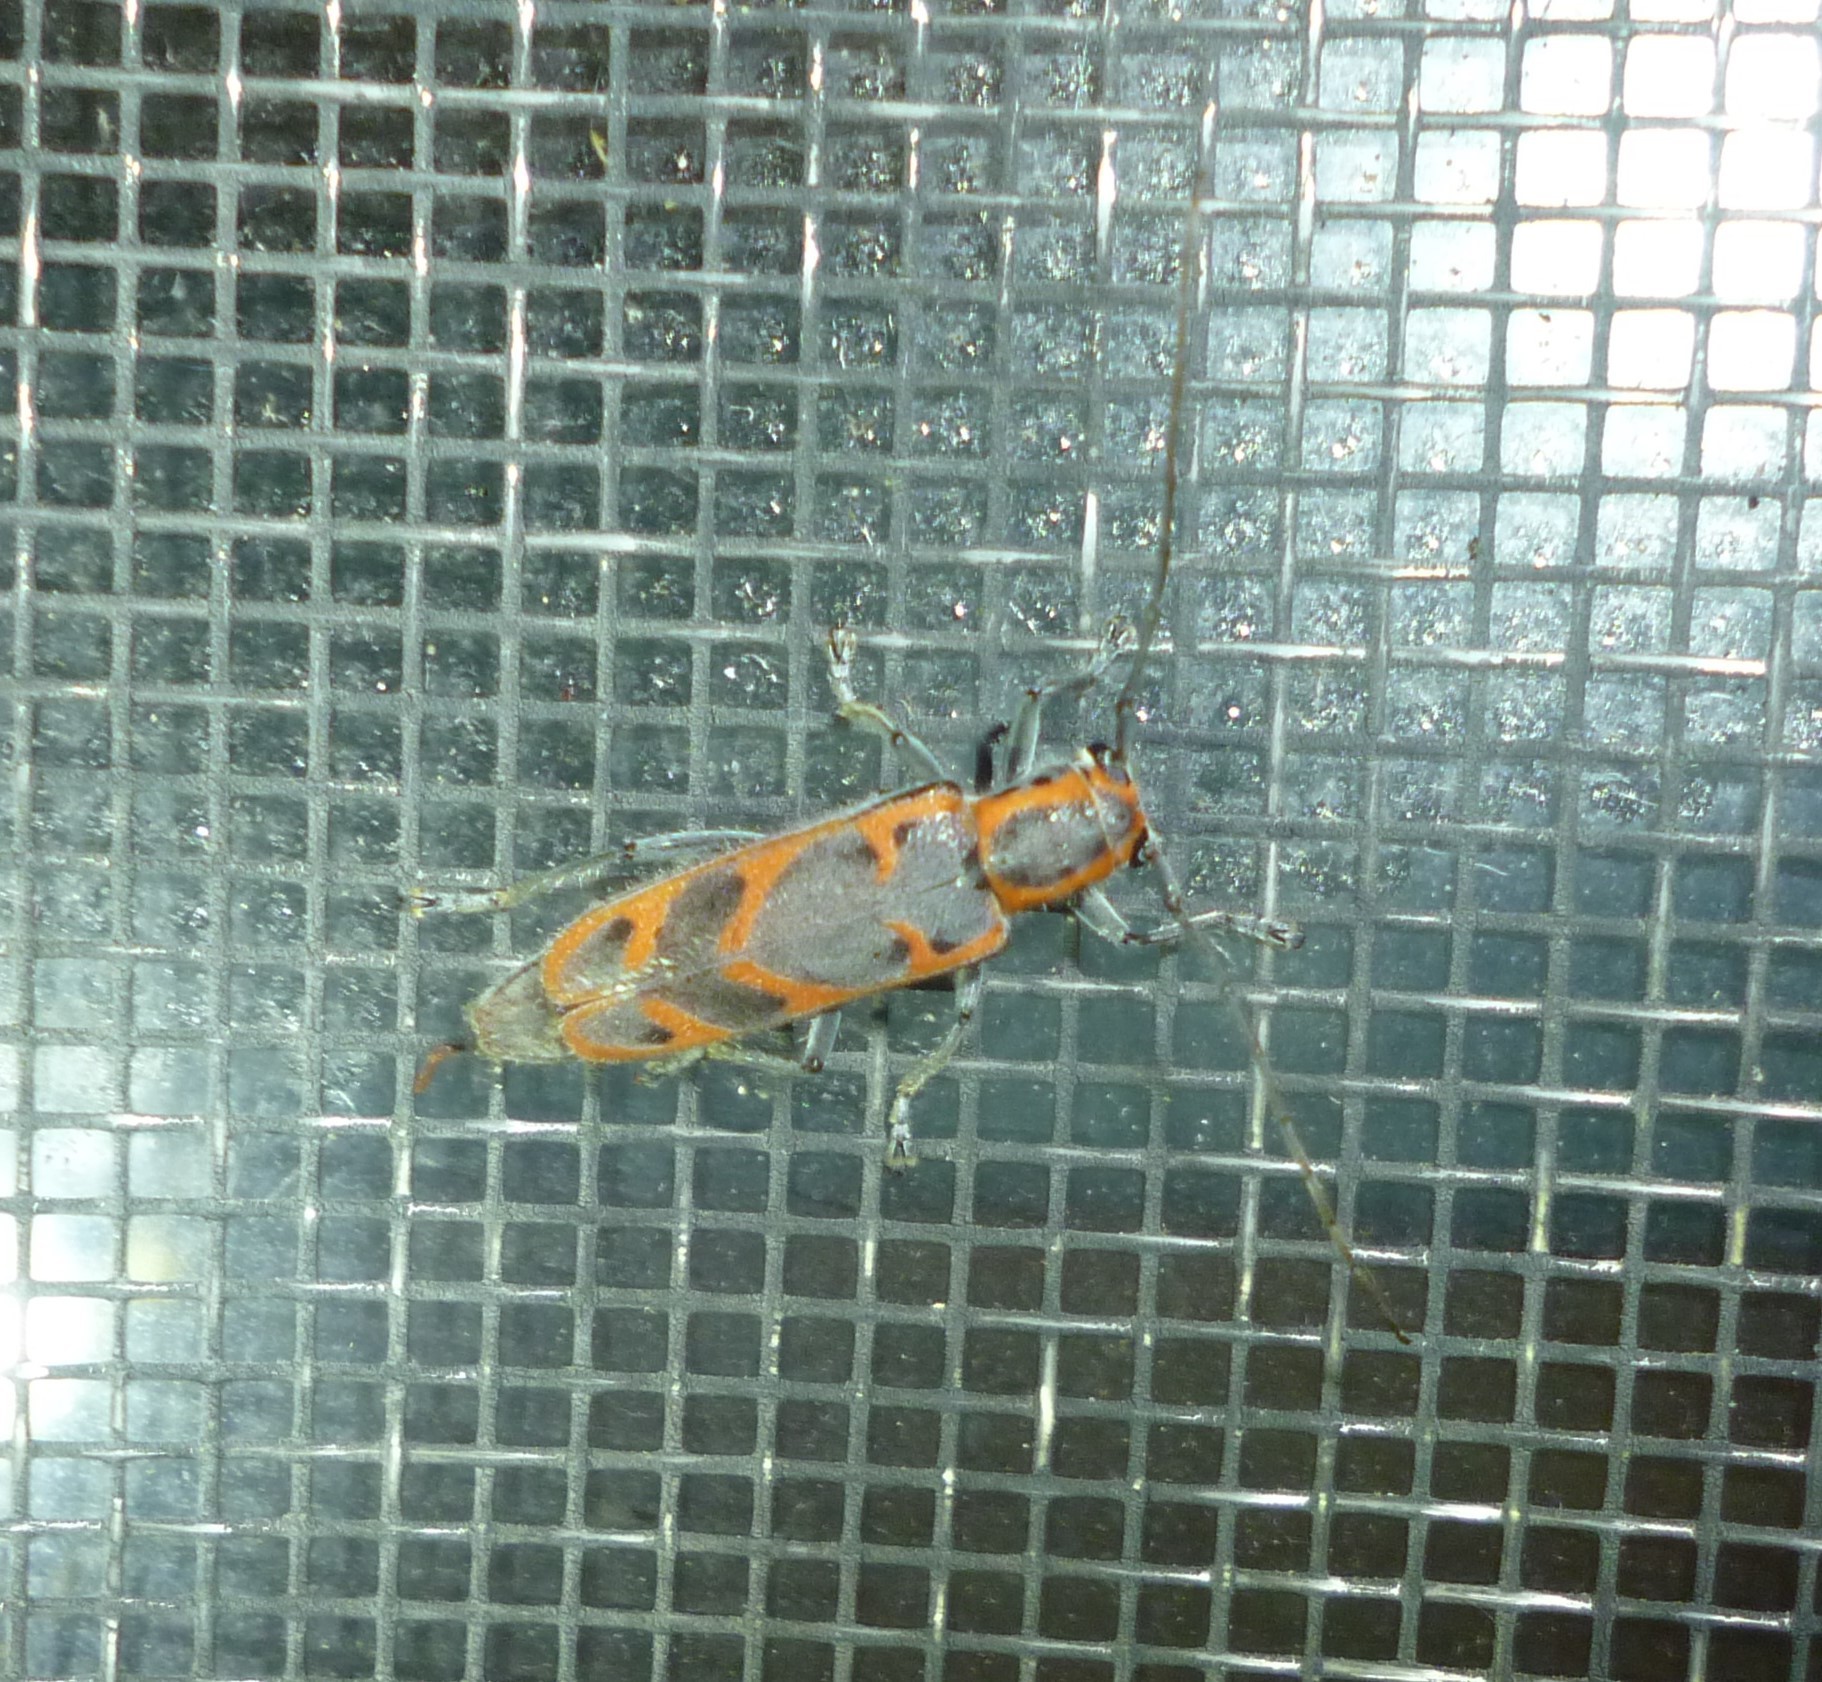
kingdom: Animalia
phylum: Arthropoda
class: Insecta
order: Coleoptera
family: Cerambycidae
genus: Saperda
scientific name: Saperda tridentata
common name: Elm borer
